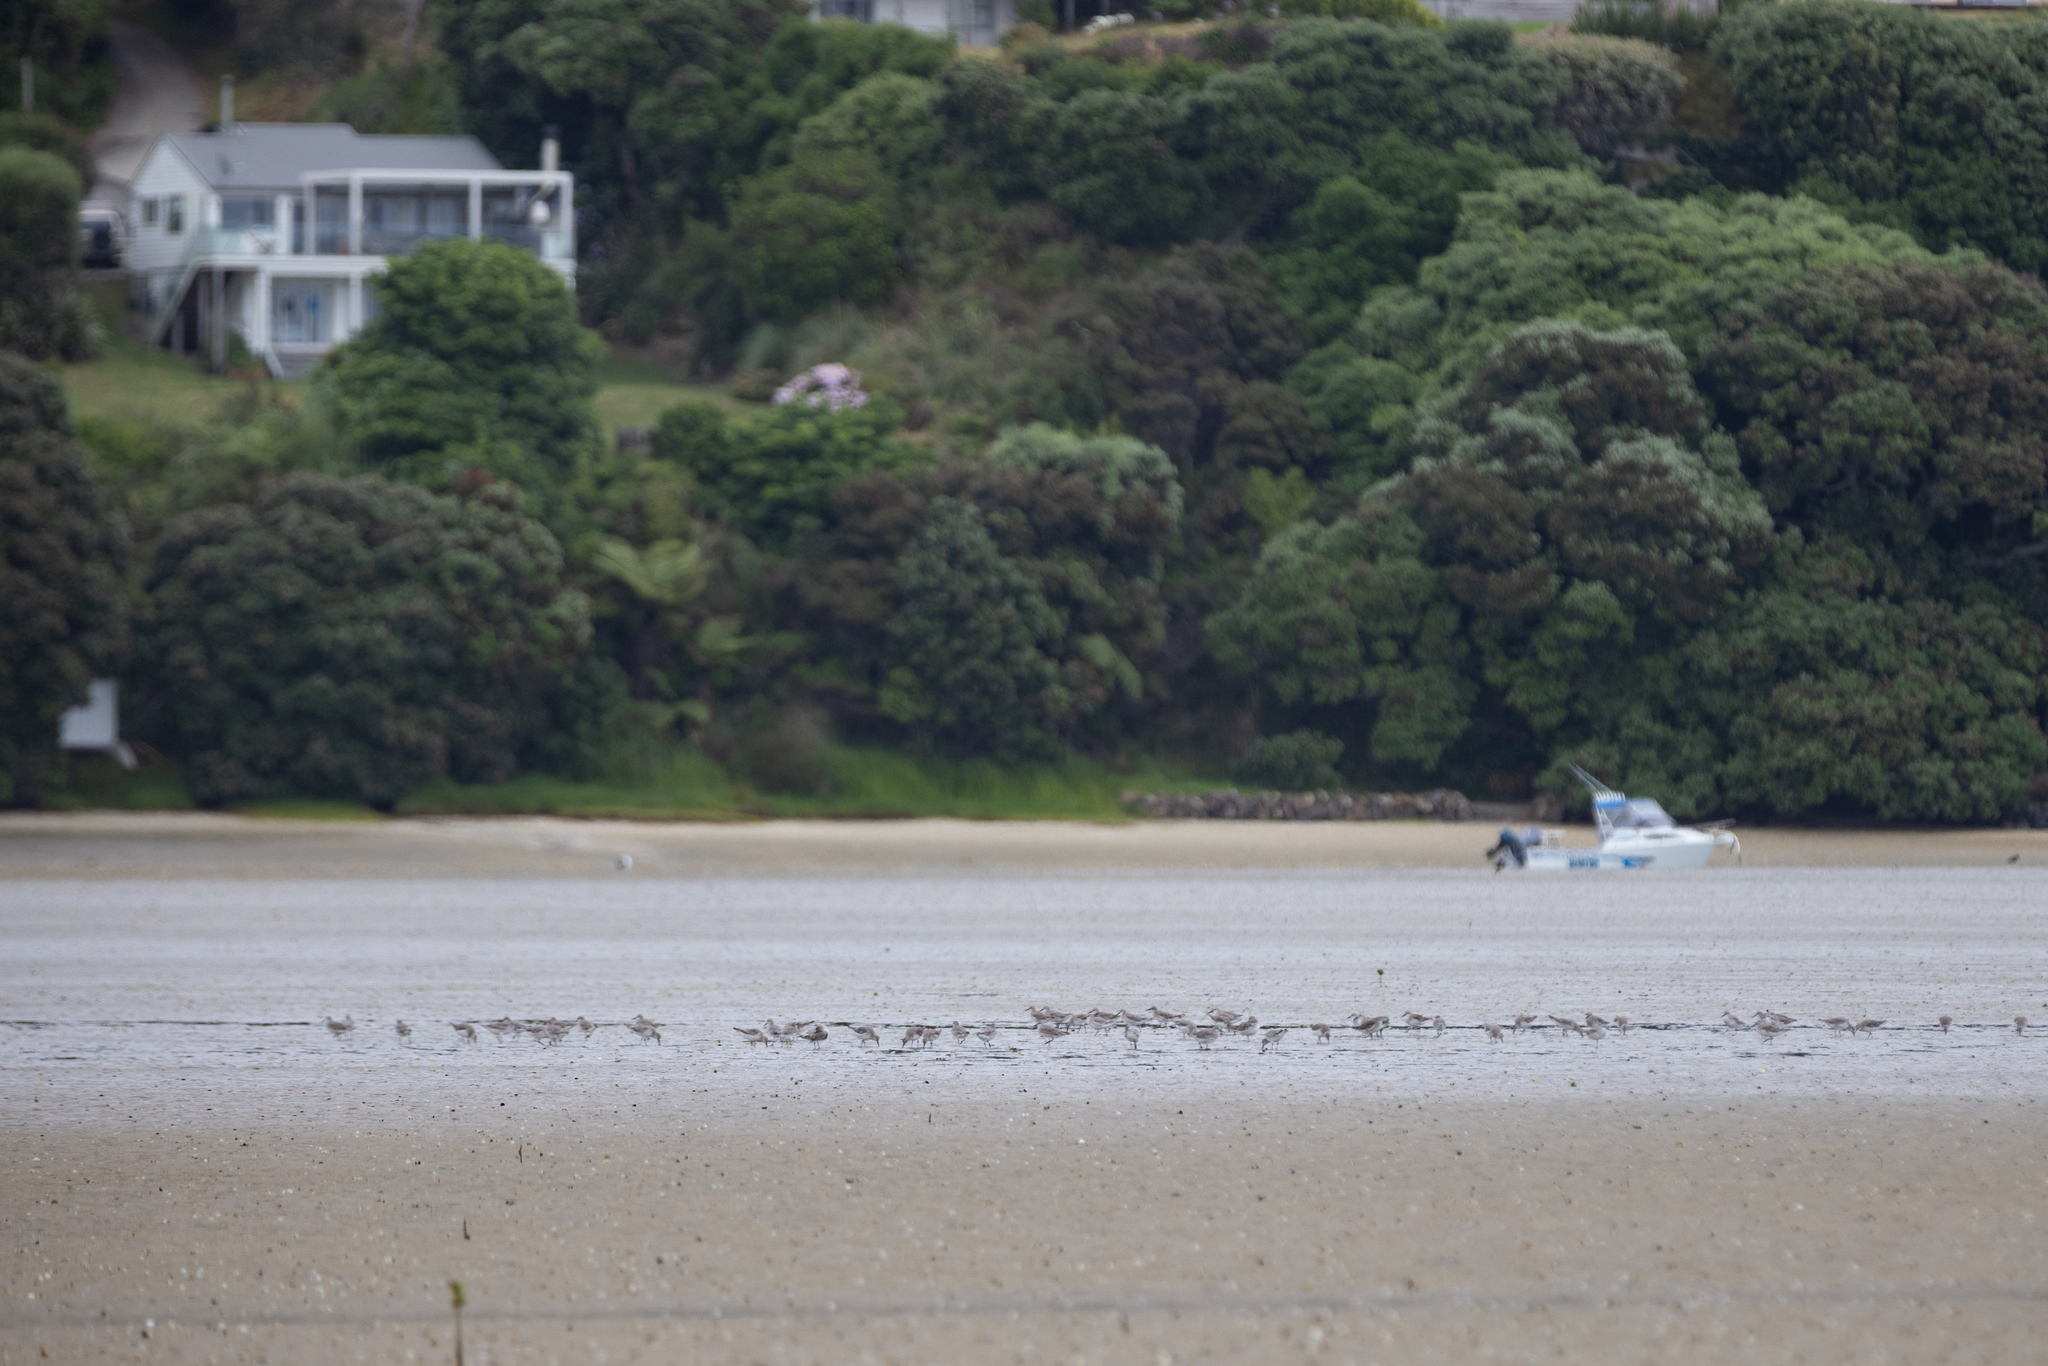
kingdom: Animalia
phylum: Chordata
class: Aves
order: Charadriiformes
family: Scolopacidae
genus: Calidris
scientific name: Calidris canutus
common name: Red knot
